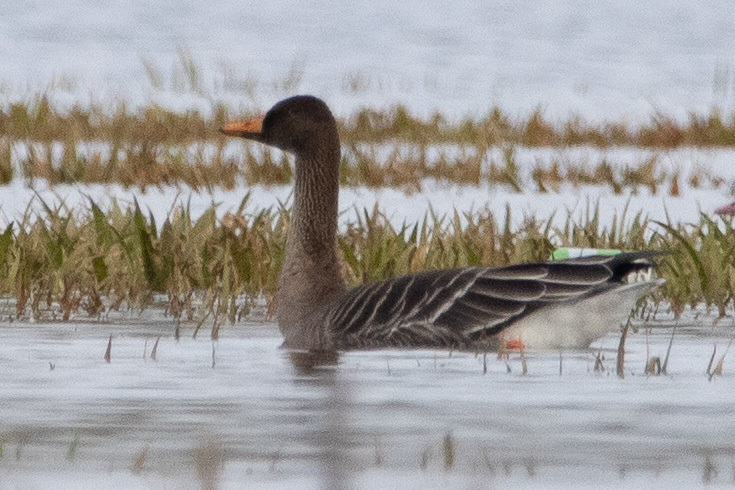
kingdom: Animalia
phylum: Chordata
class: Aves
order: Anseriformes
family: Anatidae
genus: Anser
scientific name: Anser fabalis
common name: Bean goose
